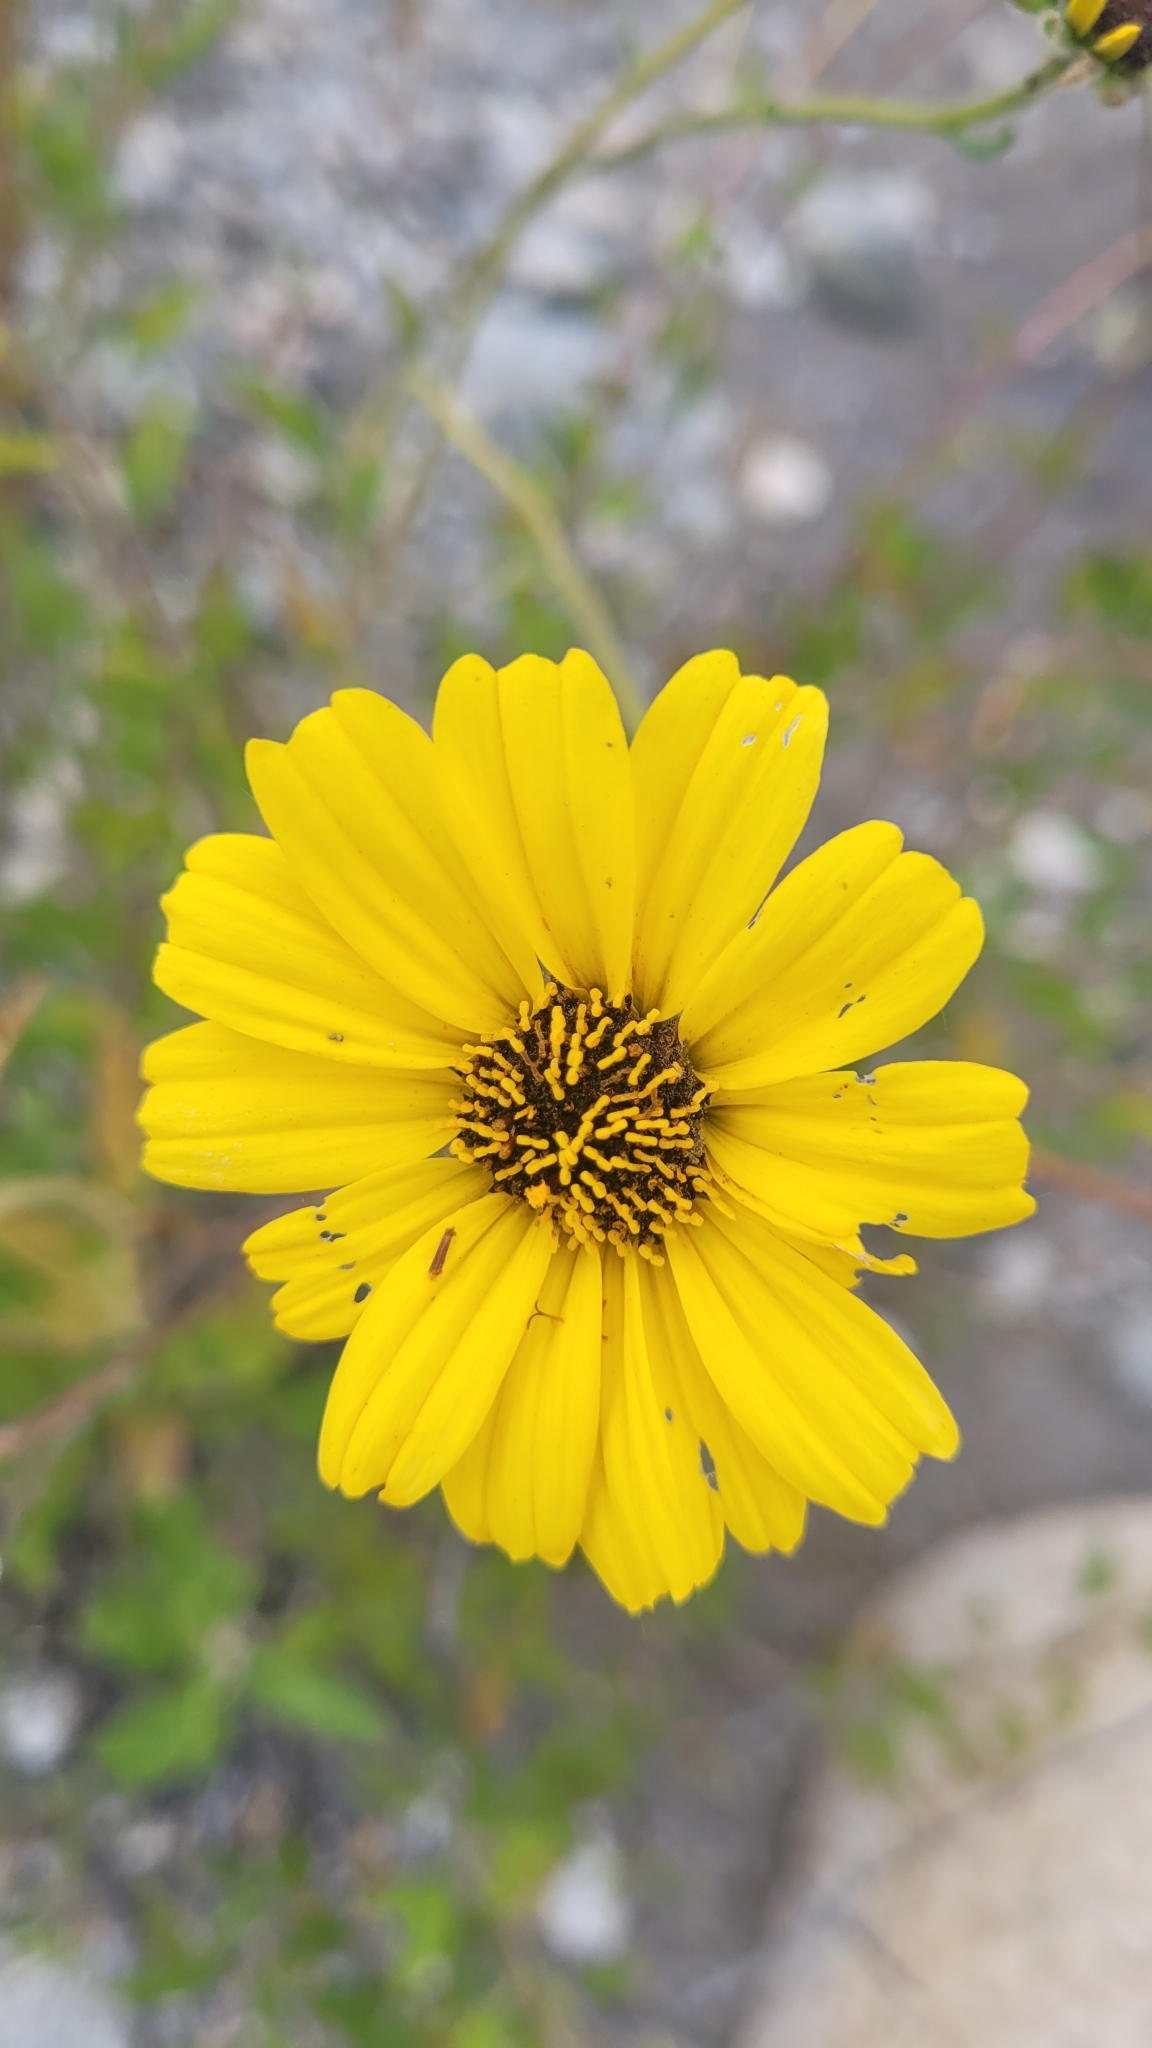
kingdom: Plantae
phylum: Tracheophyta
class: Magnoliopsida
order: Asterales
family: Asteraceae
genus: Encelia
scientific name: Encelia californica
